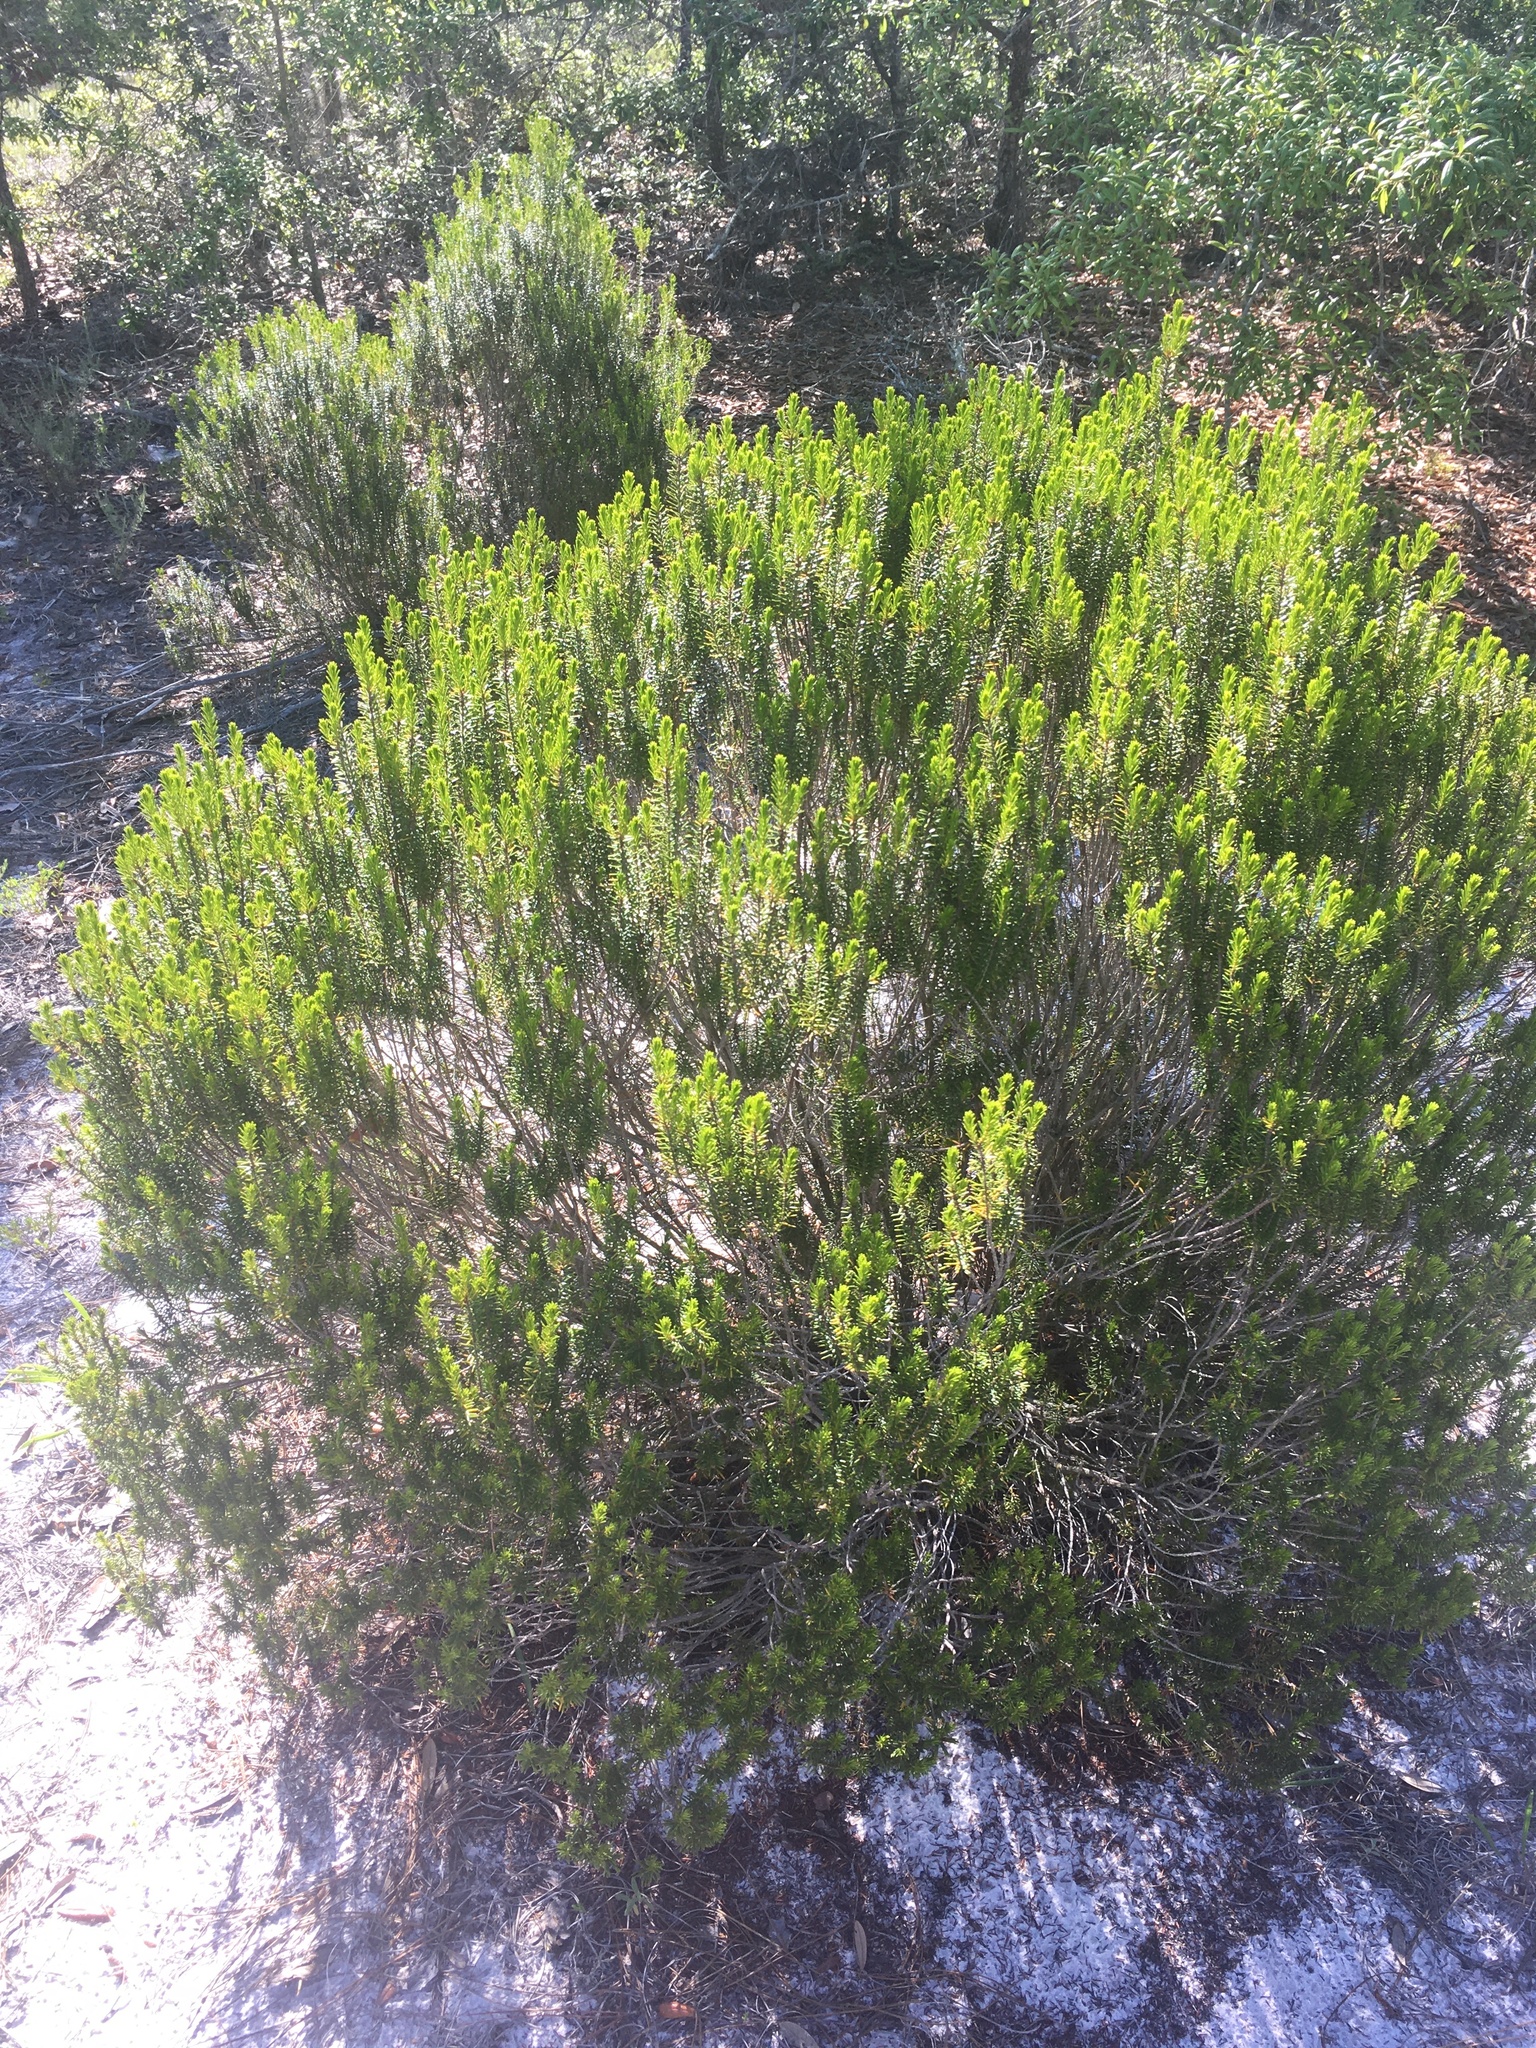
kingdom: Plantae
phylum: Tracheophyta
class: Magnoliopsida
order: Ericales
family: Ericaceae
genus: Ceratiola
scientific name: Ceratiola ericoides
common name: Sandhill-rosemary
